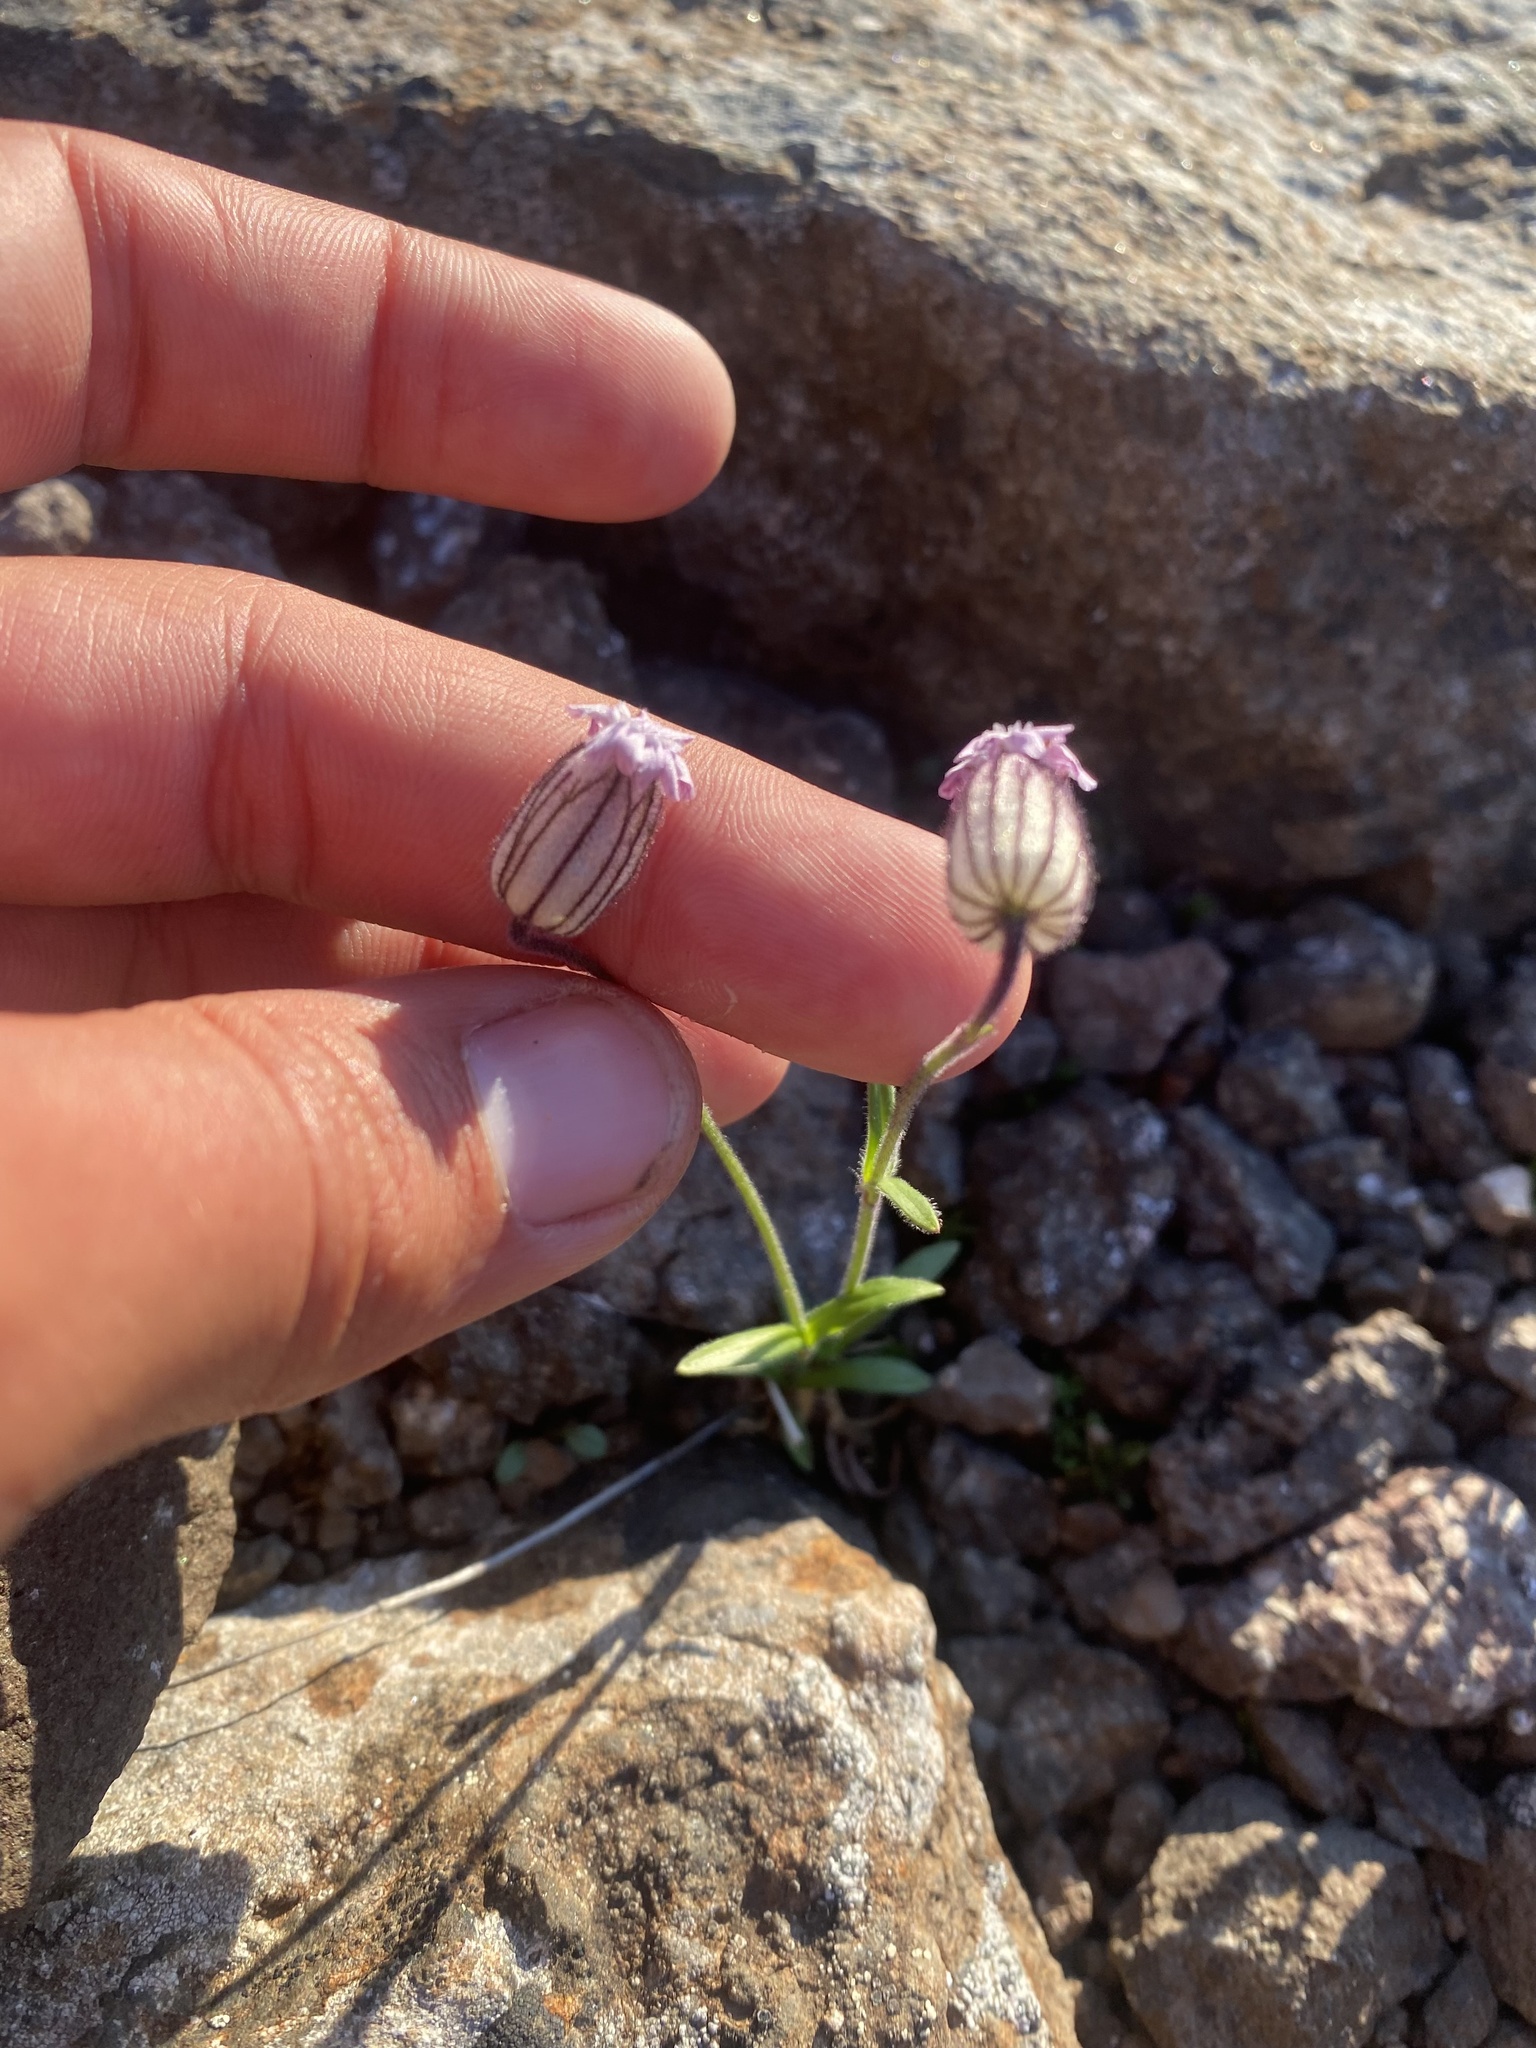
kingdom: Plantae
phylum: Tracheophyta
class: Magnoliopsida
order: Caryophyllales
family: Caryophyllaceae
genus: Silene
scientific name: Silene wahlbergella
